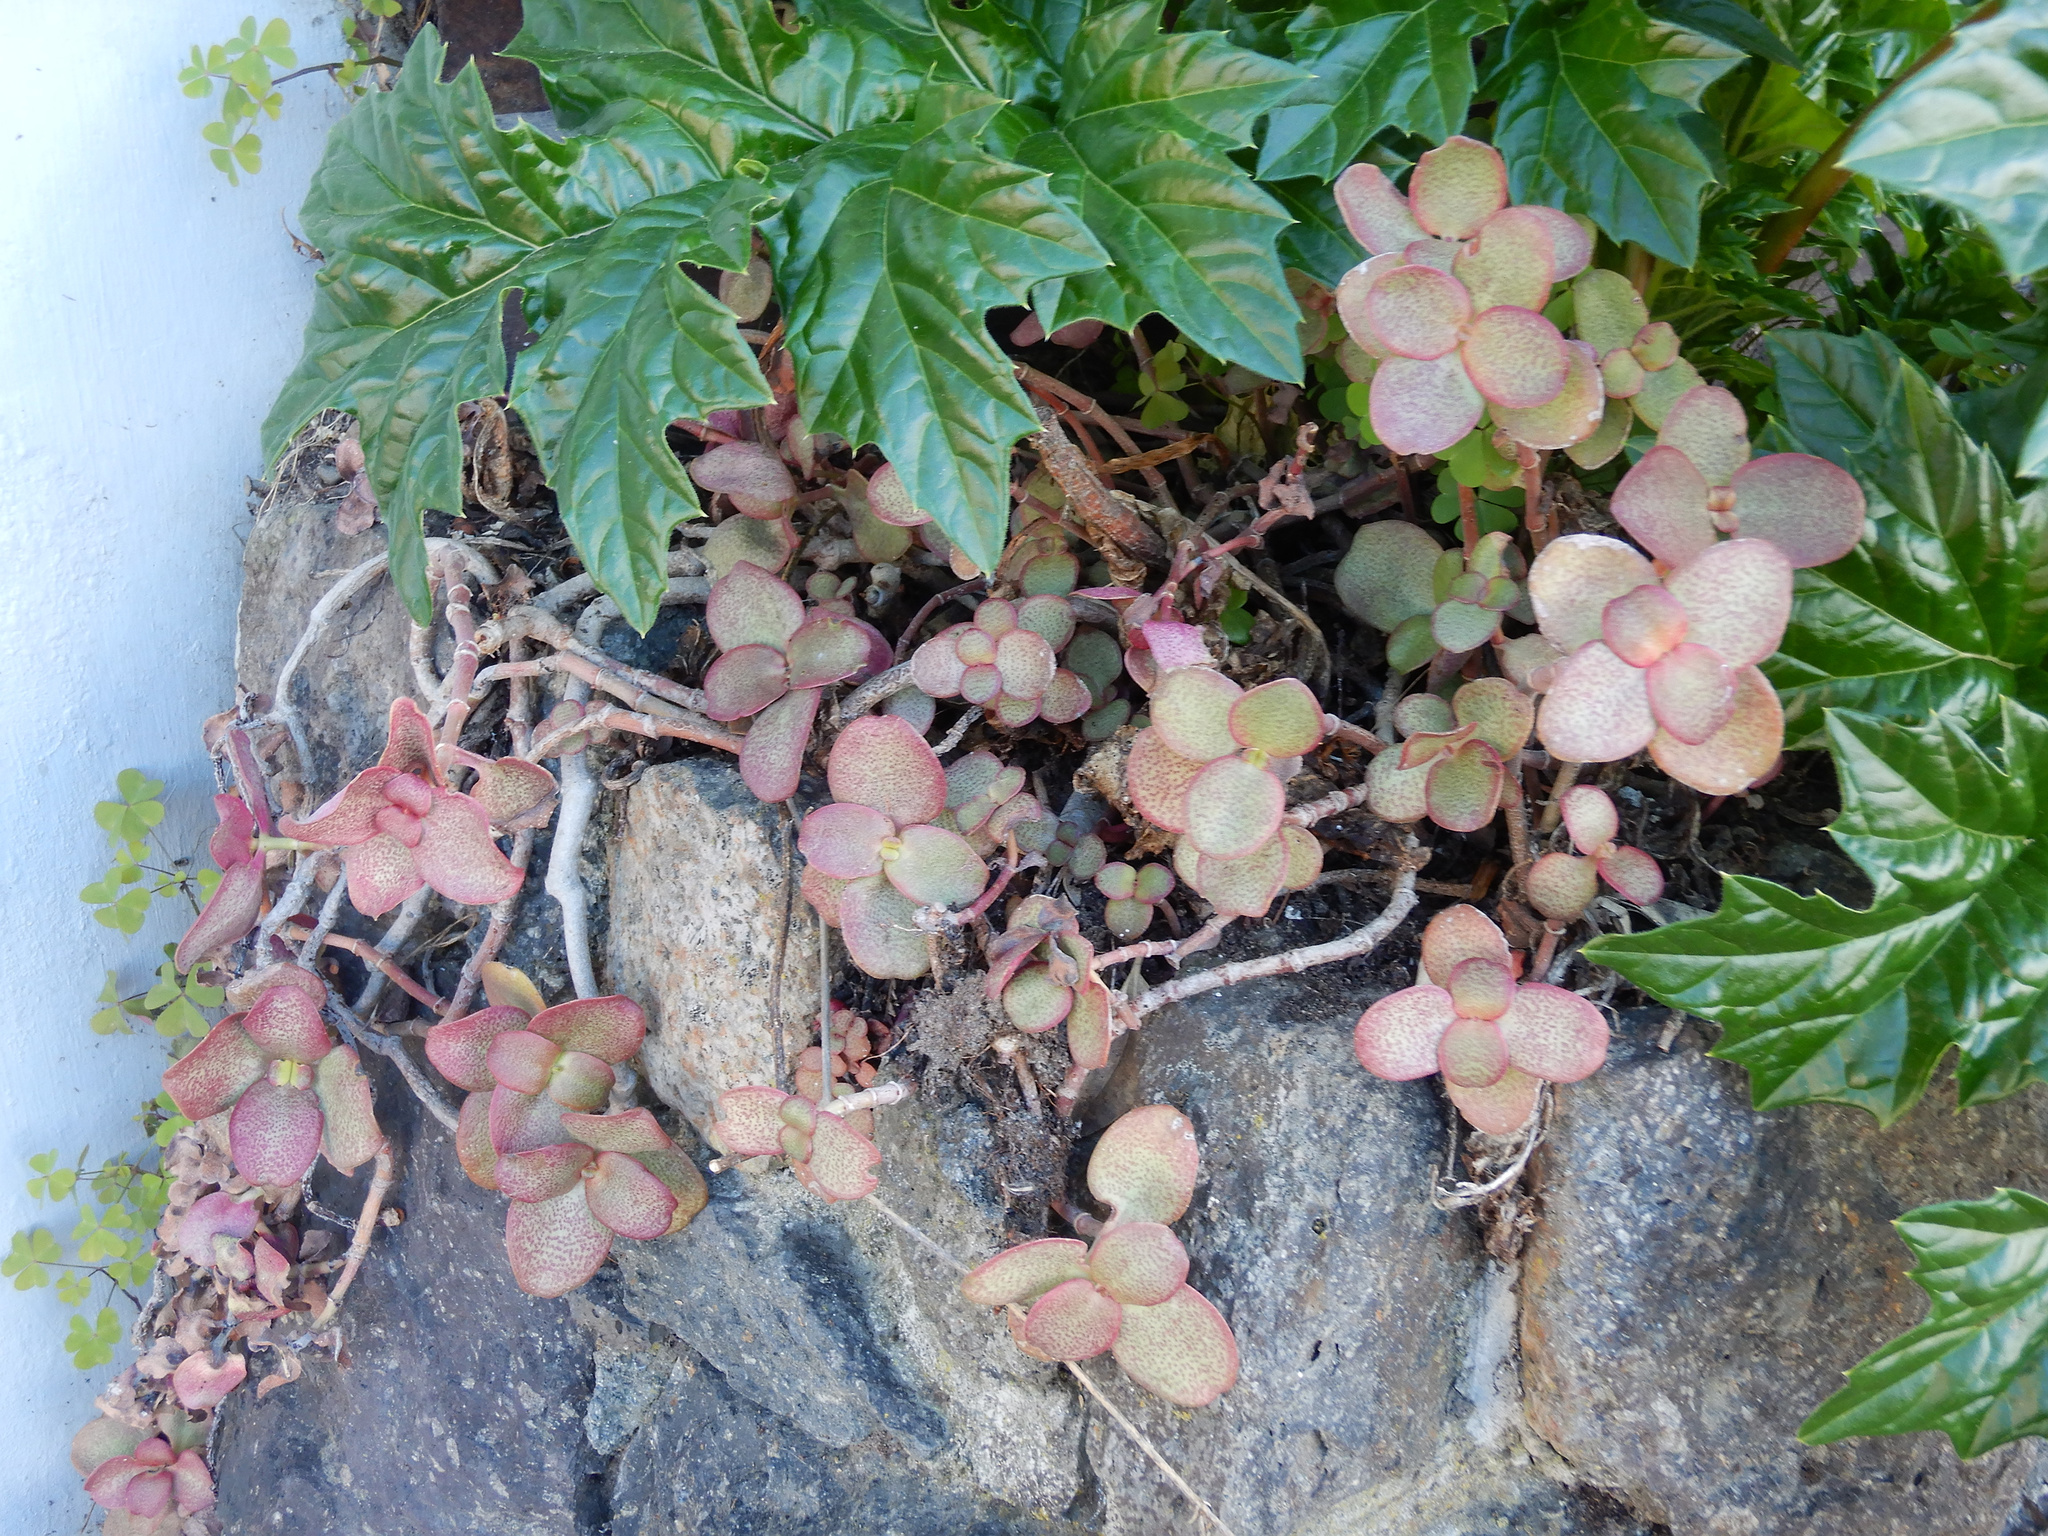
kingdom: Plantae
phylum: Tracheophyta
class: Magnoliopsida
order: Saxifragales
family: Crassulaceae
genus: Crassula
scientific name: Crassula multicava
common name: Cape province pygmyweed
